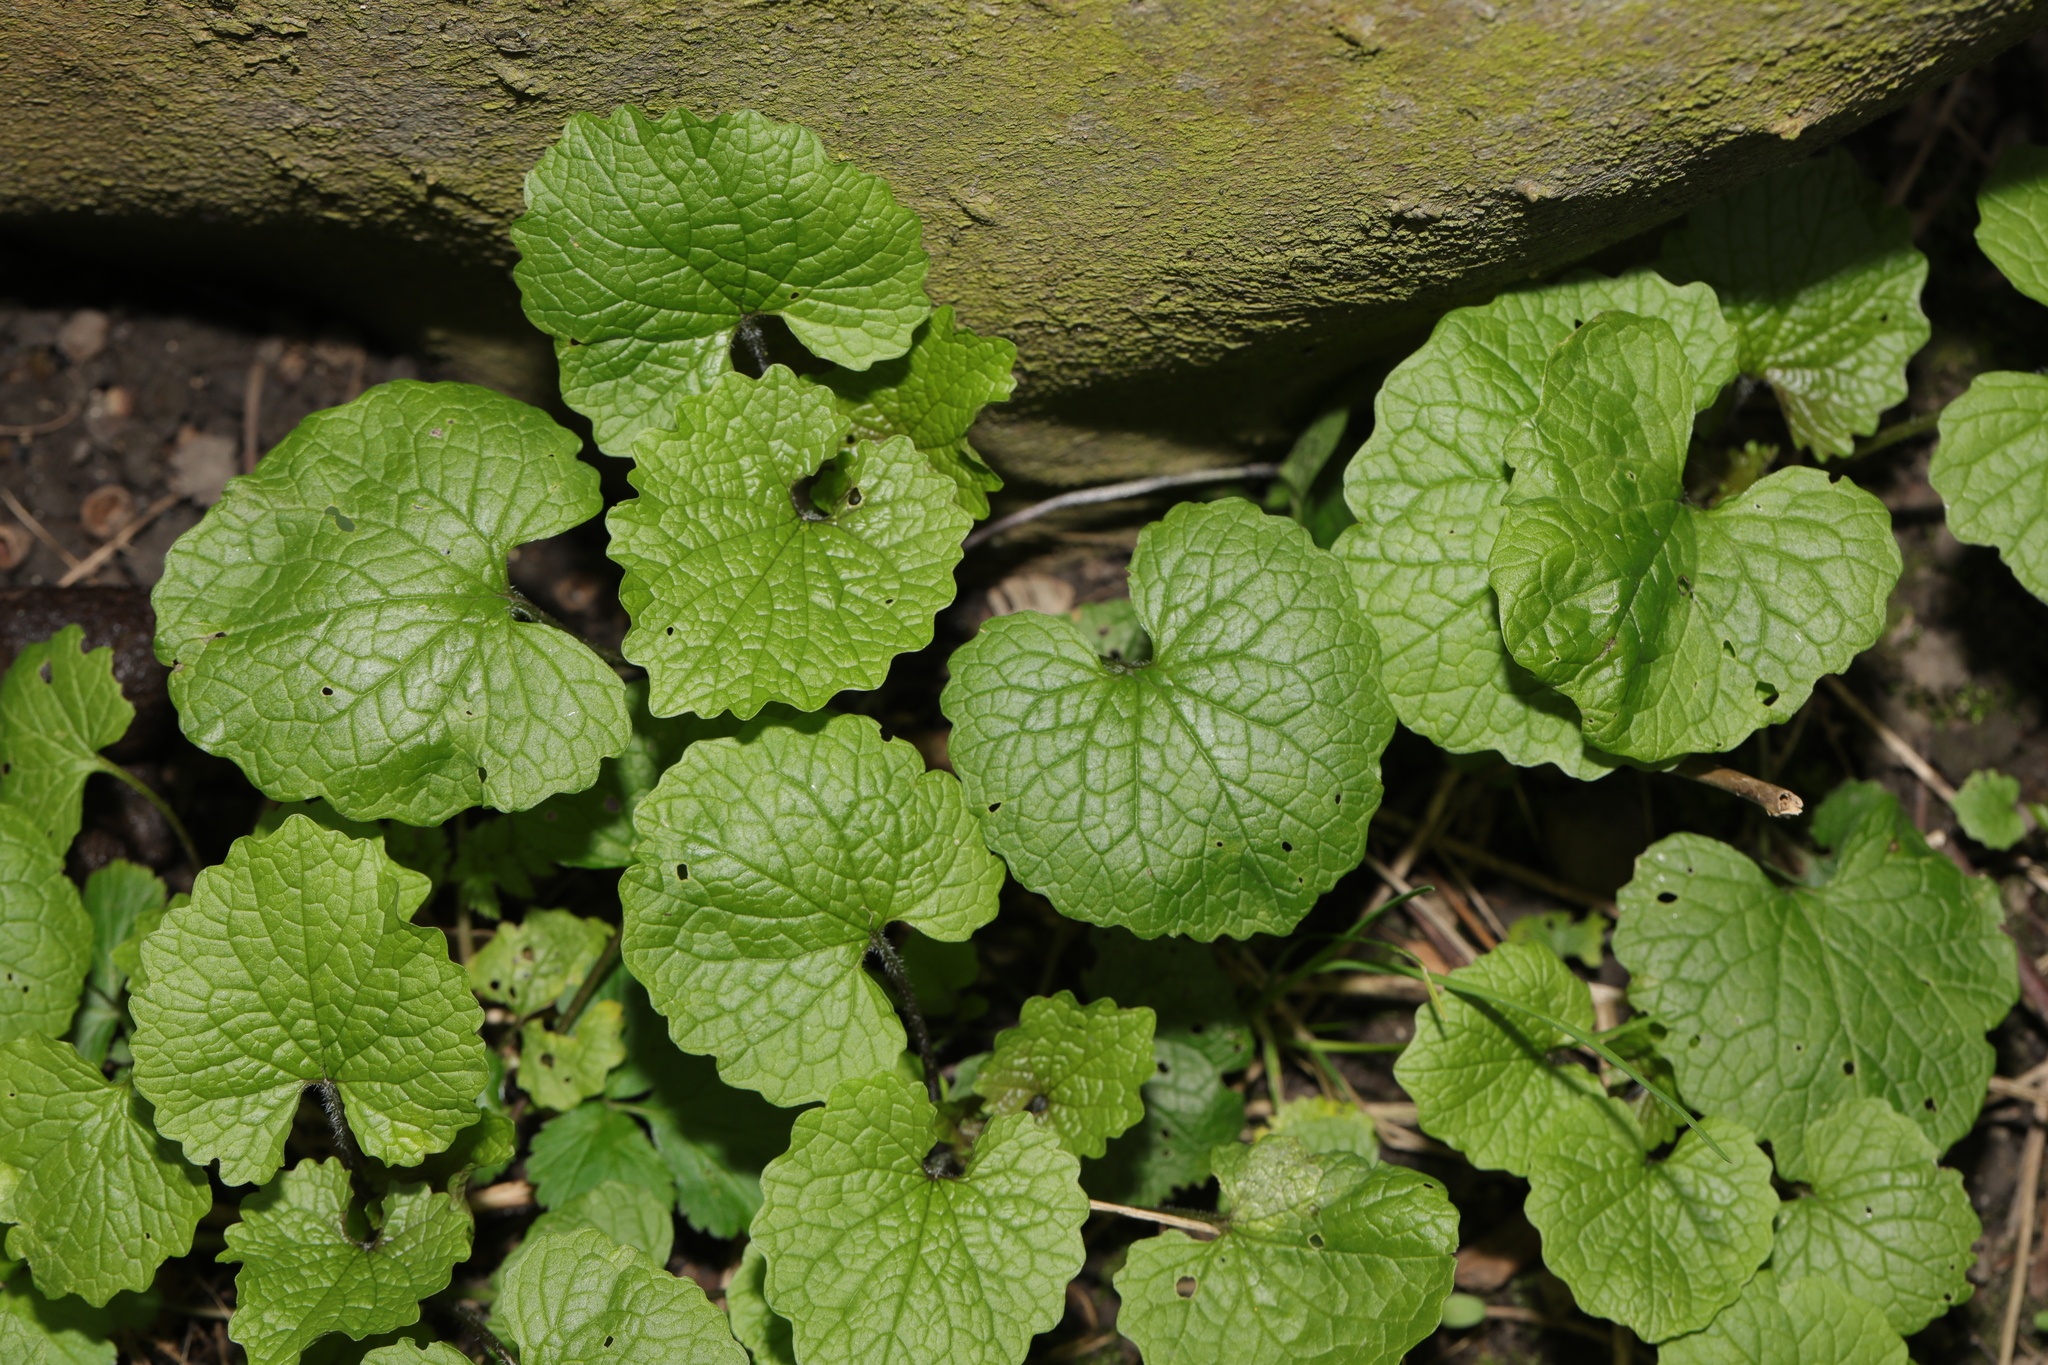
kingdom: Plantae
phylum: Tracheophyta
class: Magnoliopsida
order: Brassicales
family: Brassicaceae
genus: Alliaria
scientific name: Alliaria petiolata
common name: Garlic mustard
